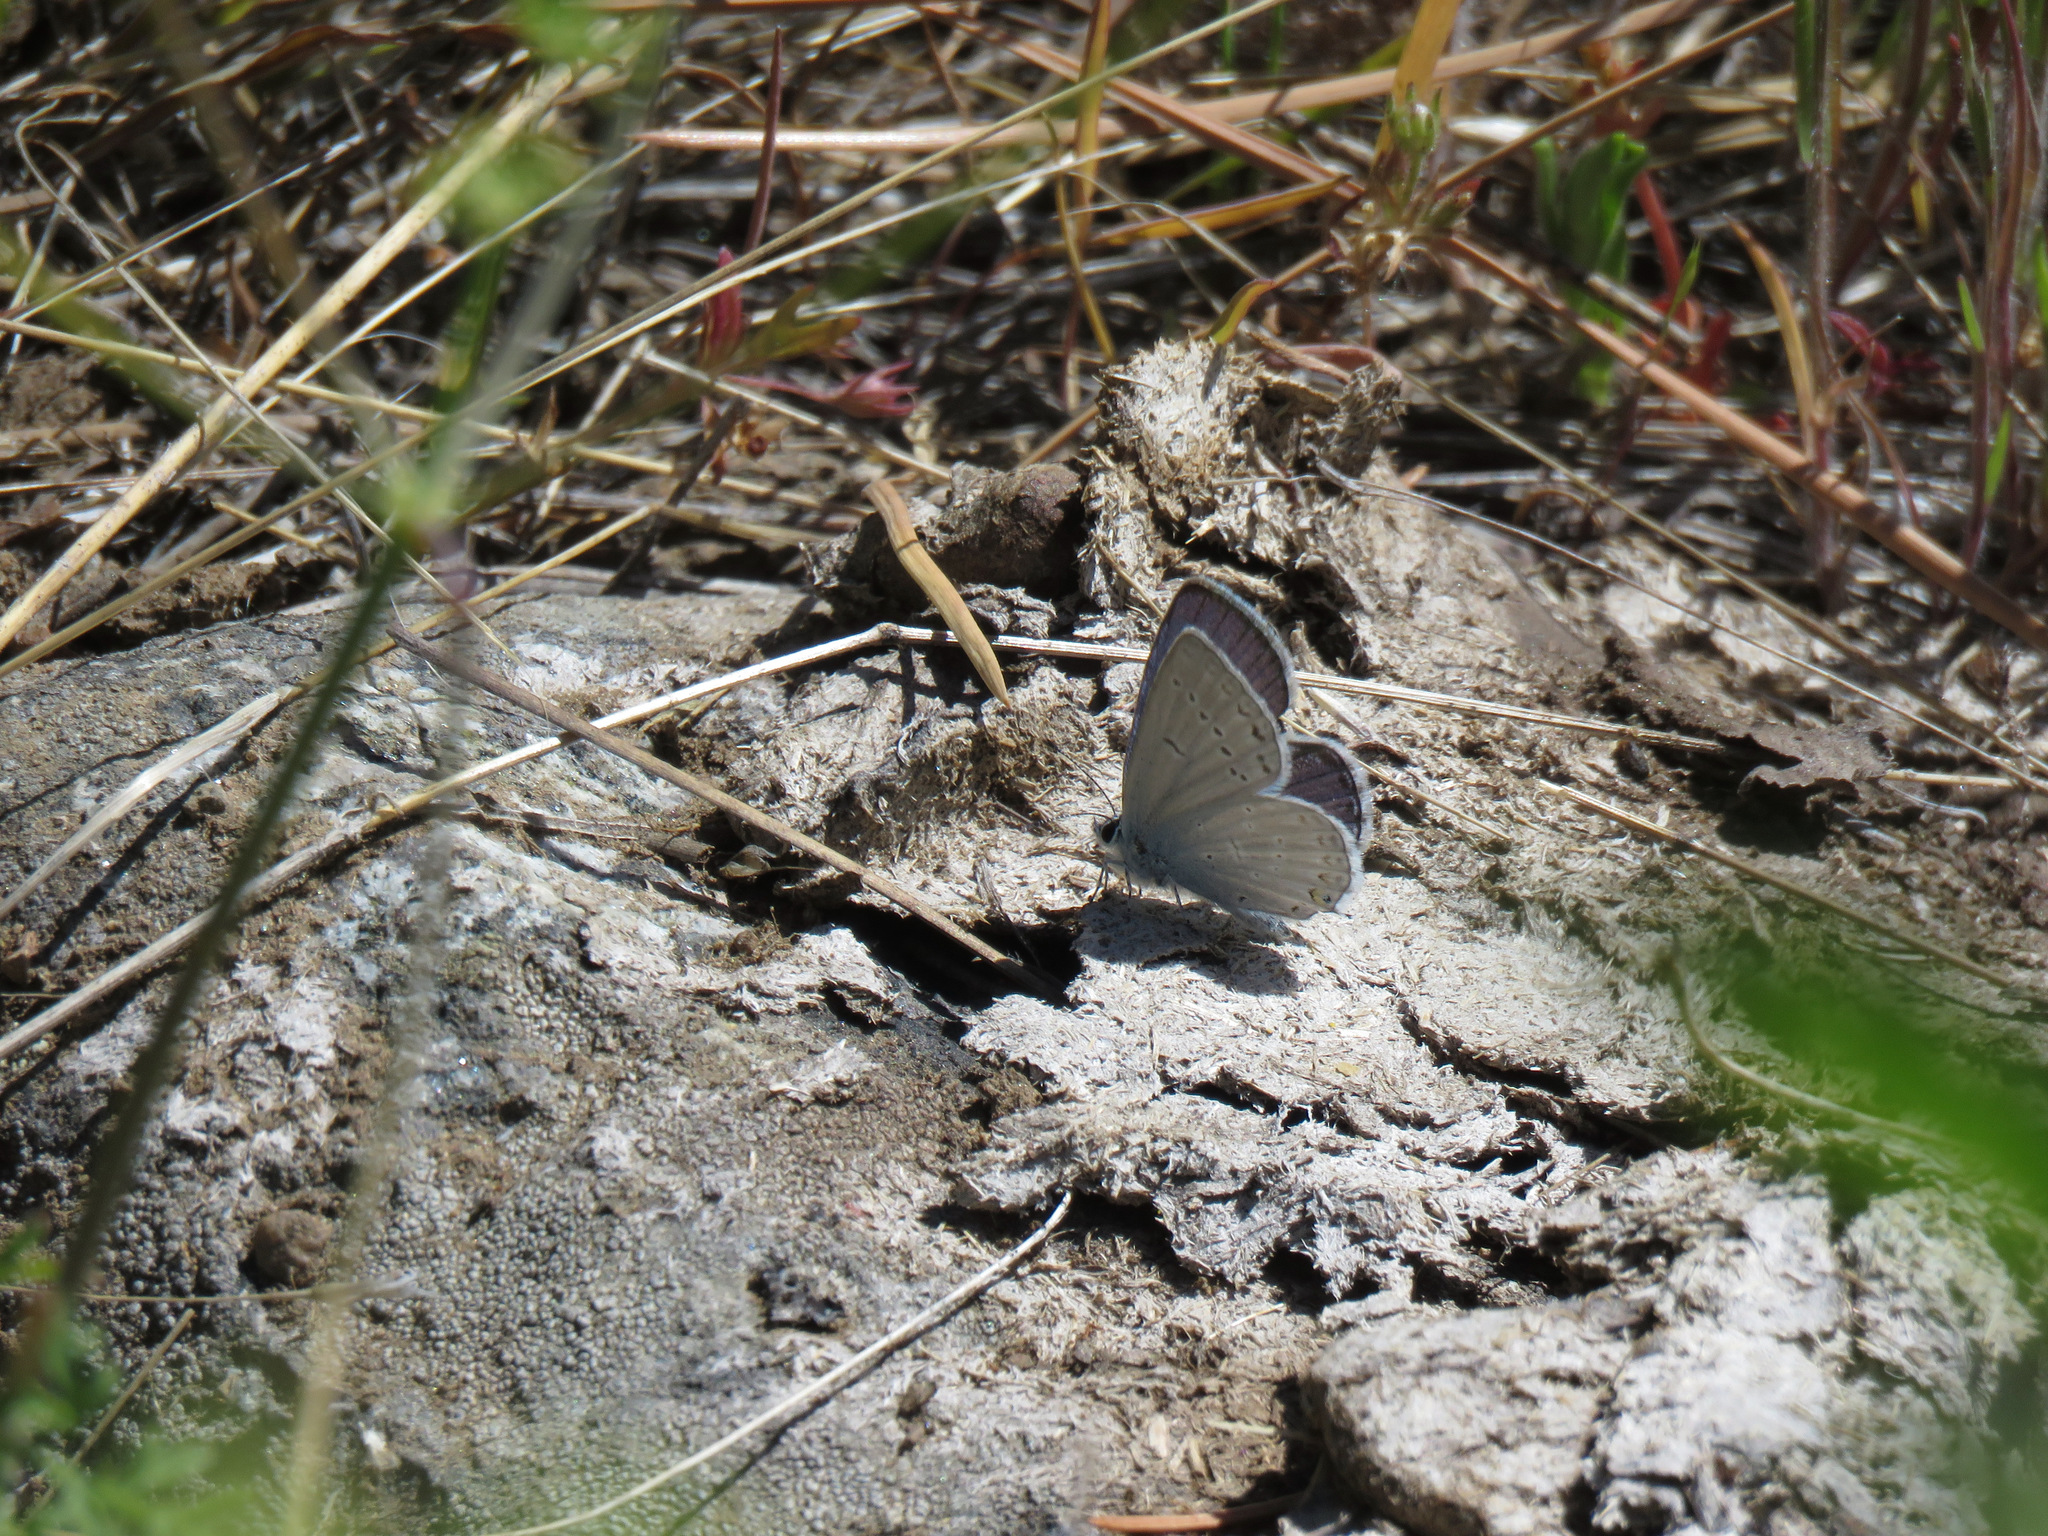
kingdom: Animalia
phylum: Arthropoda
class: Insecta
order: Lepidoptera
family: Lycaenidae
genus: Elkalyce
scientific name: Elkalyce amyntula
